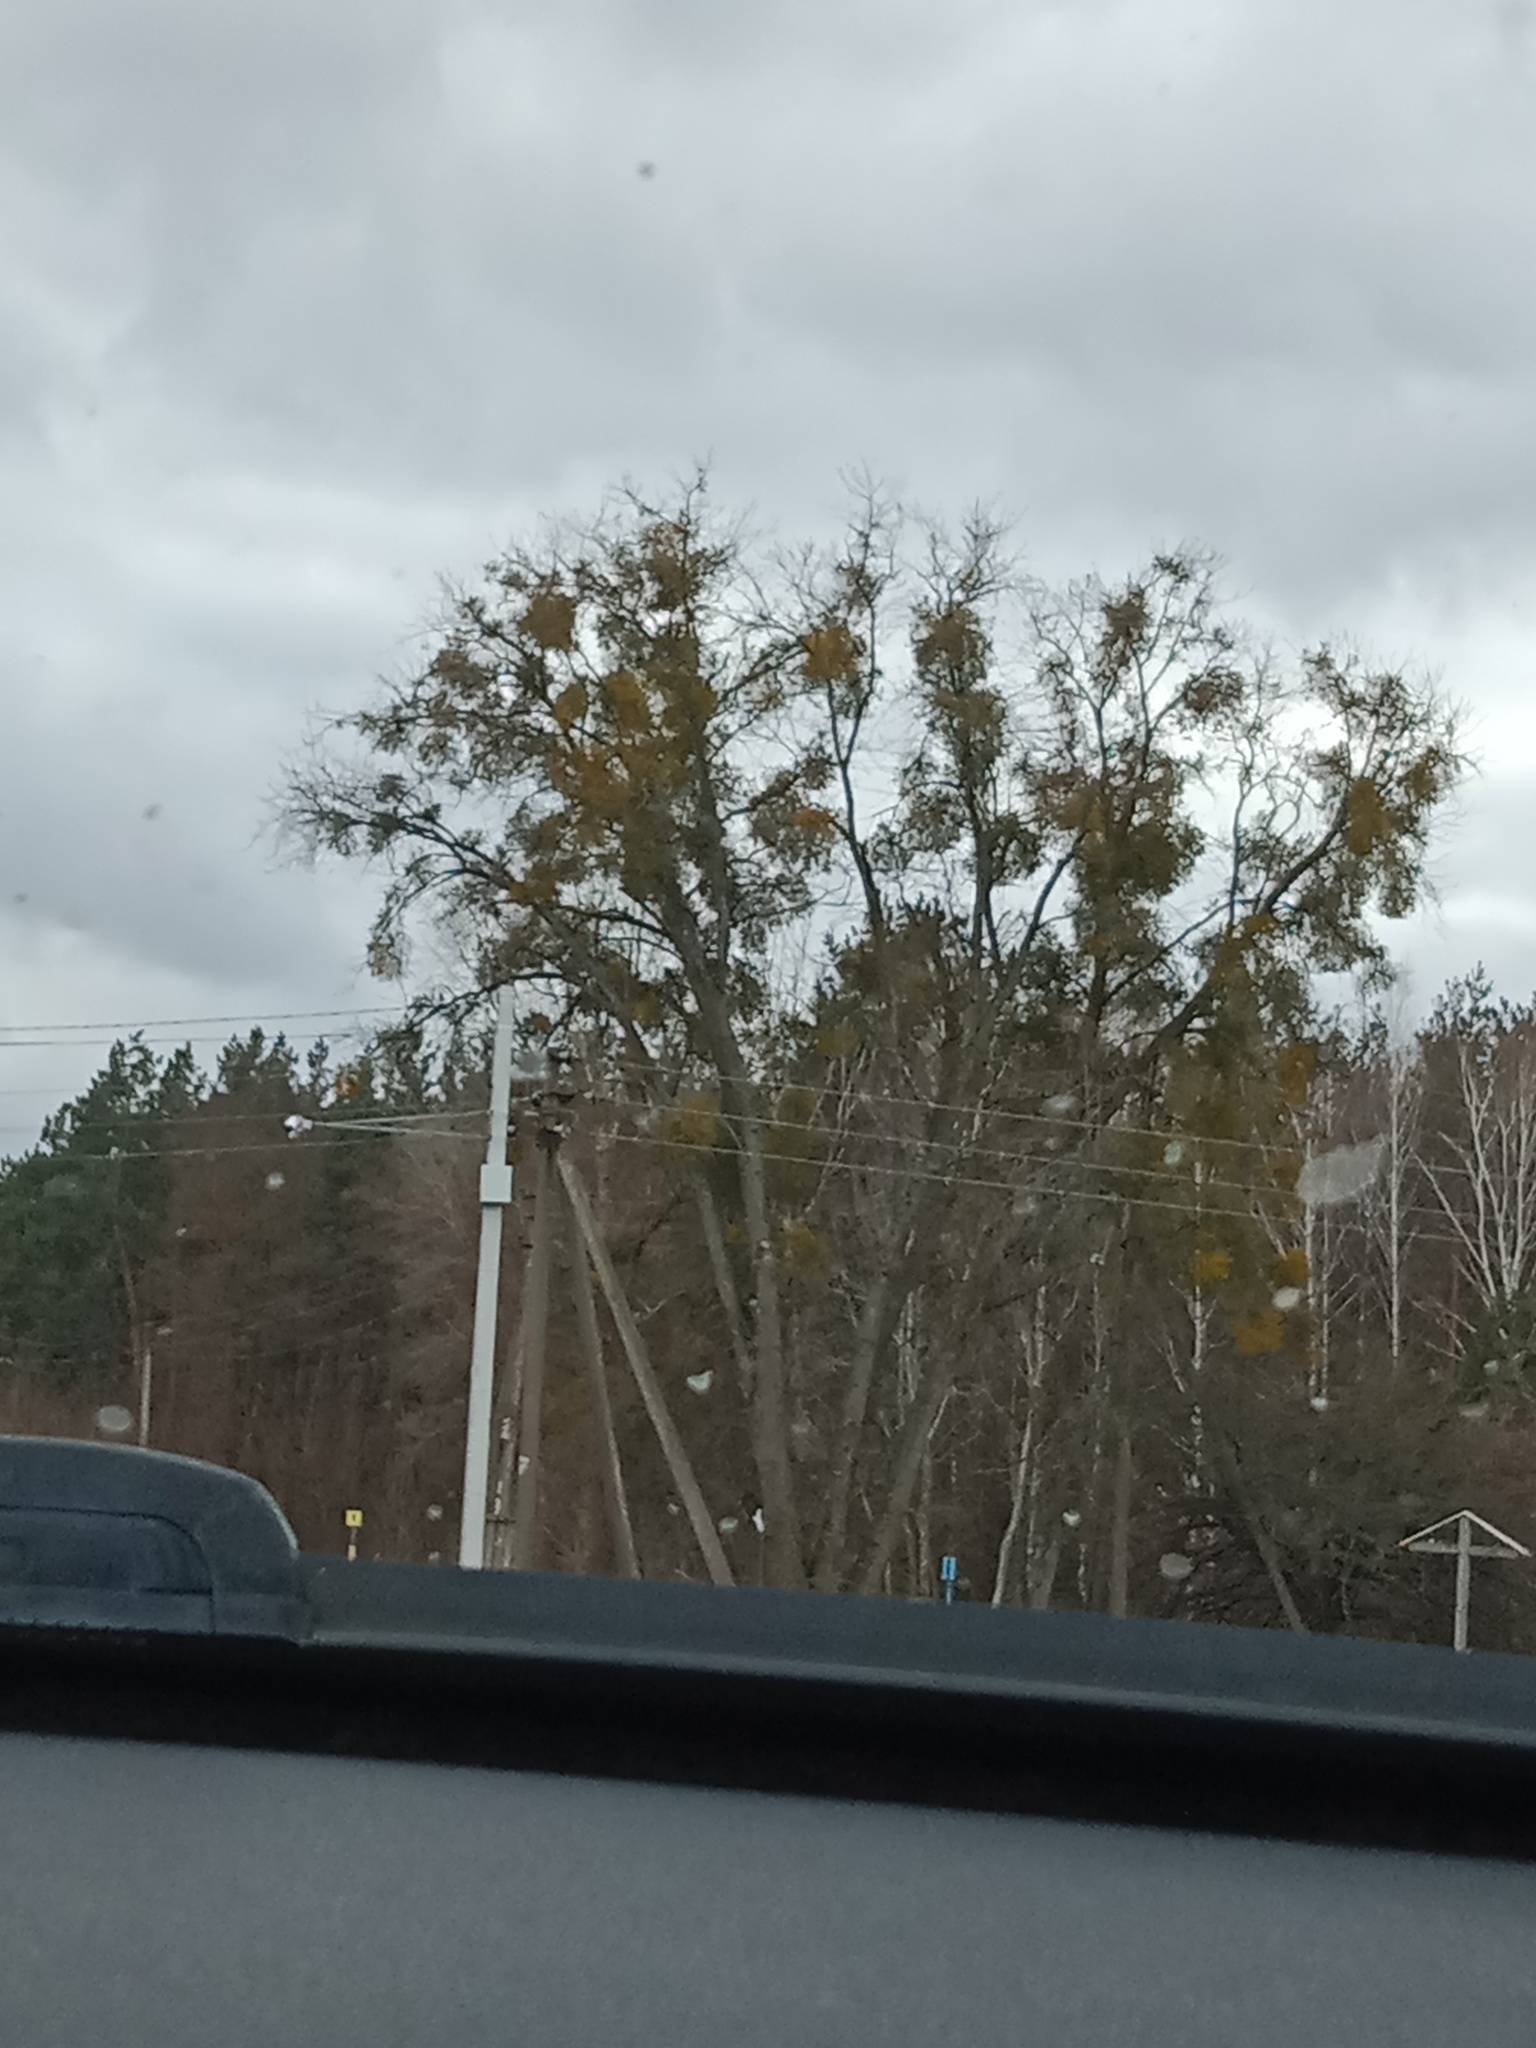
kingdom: Plantae
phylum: Tracheophyta
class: Magnoliopsida
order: Santalales
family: Viscaceae
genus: Viscum
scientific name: Viscum album
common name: Mistletoe
